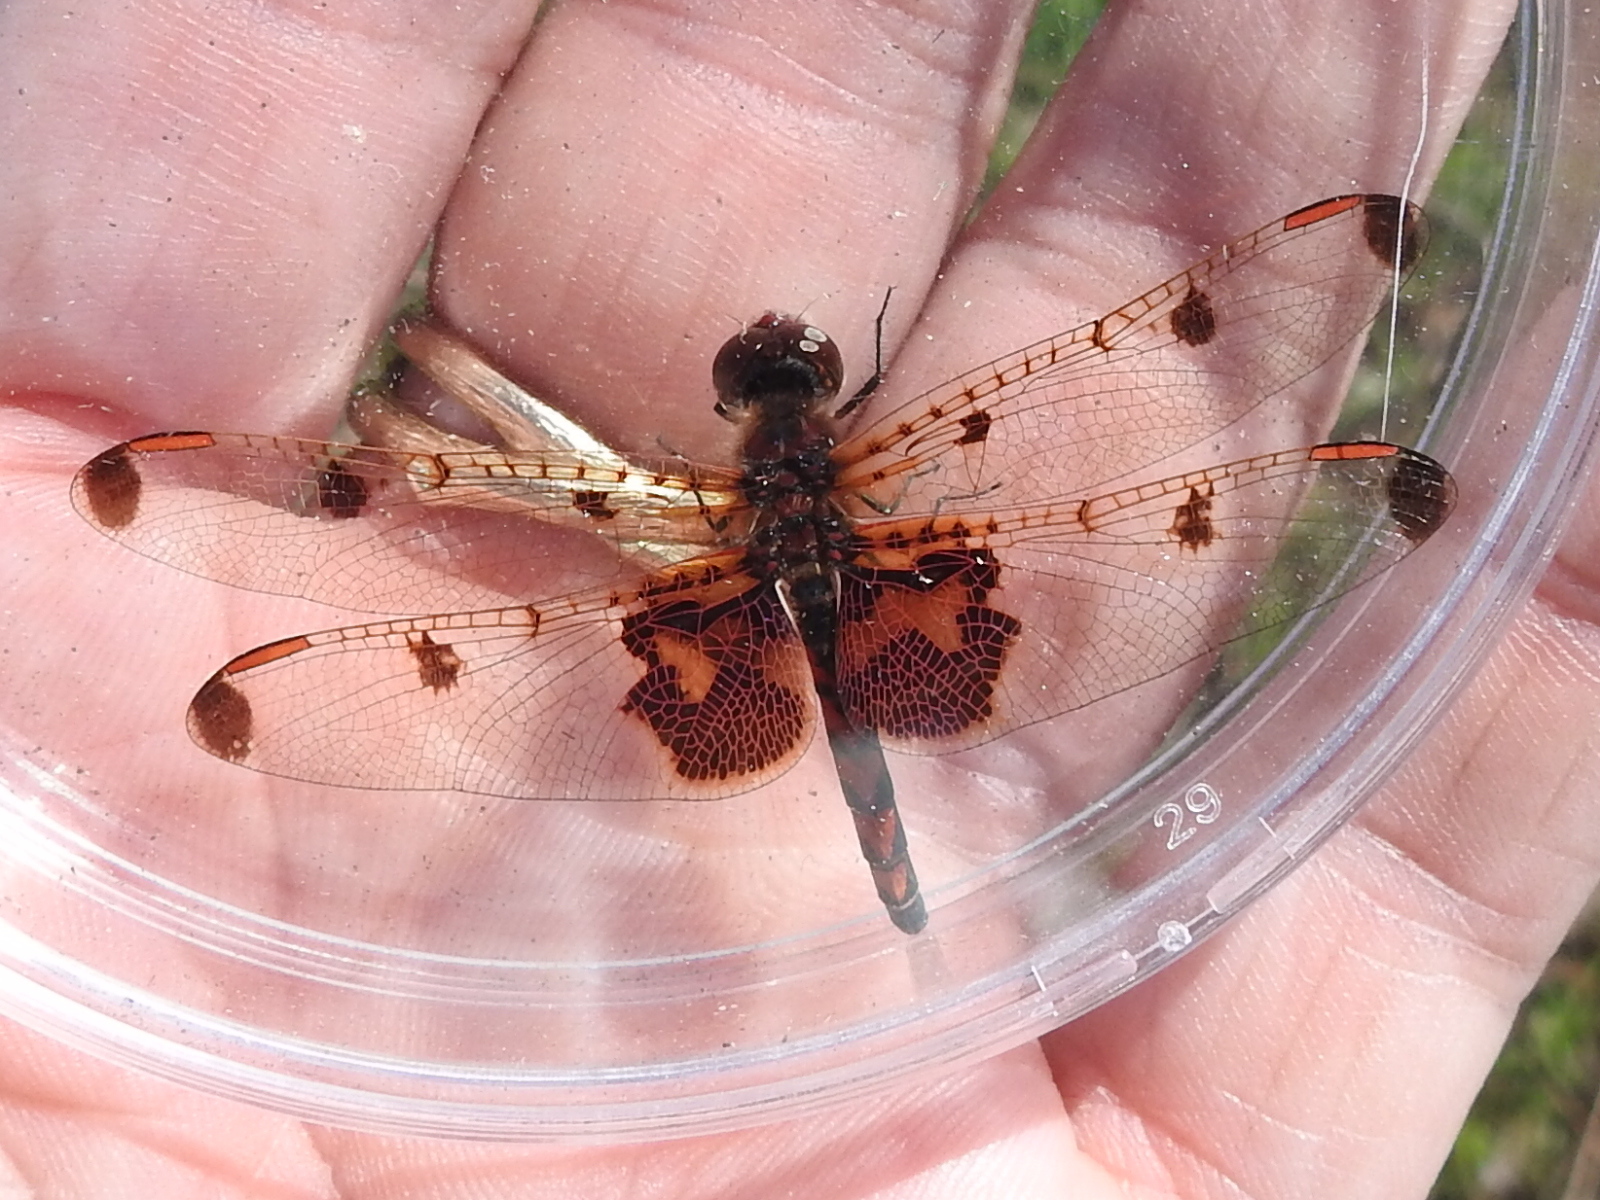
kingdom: Animalia
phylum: Arthropoda
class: Insecta
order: Odonata
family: Libellulidae
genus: Celithemis
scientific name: Celithemis elisa
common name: Calico pennant
